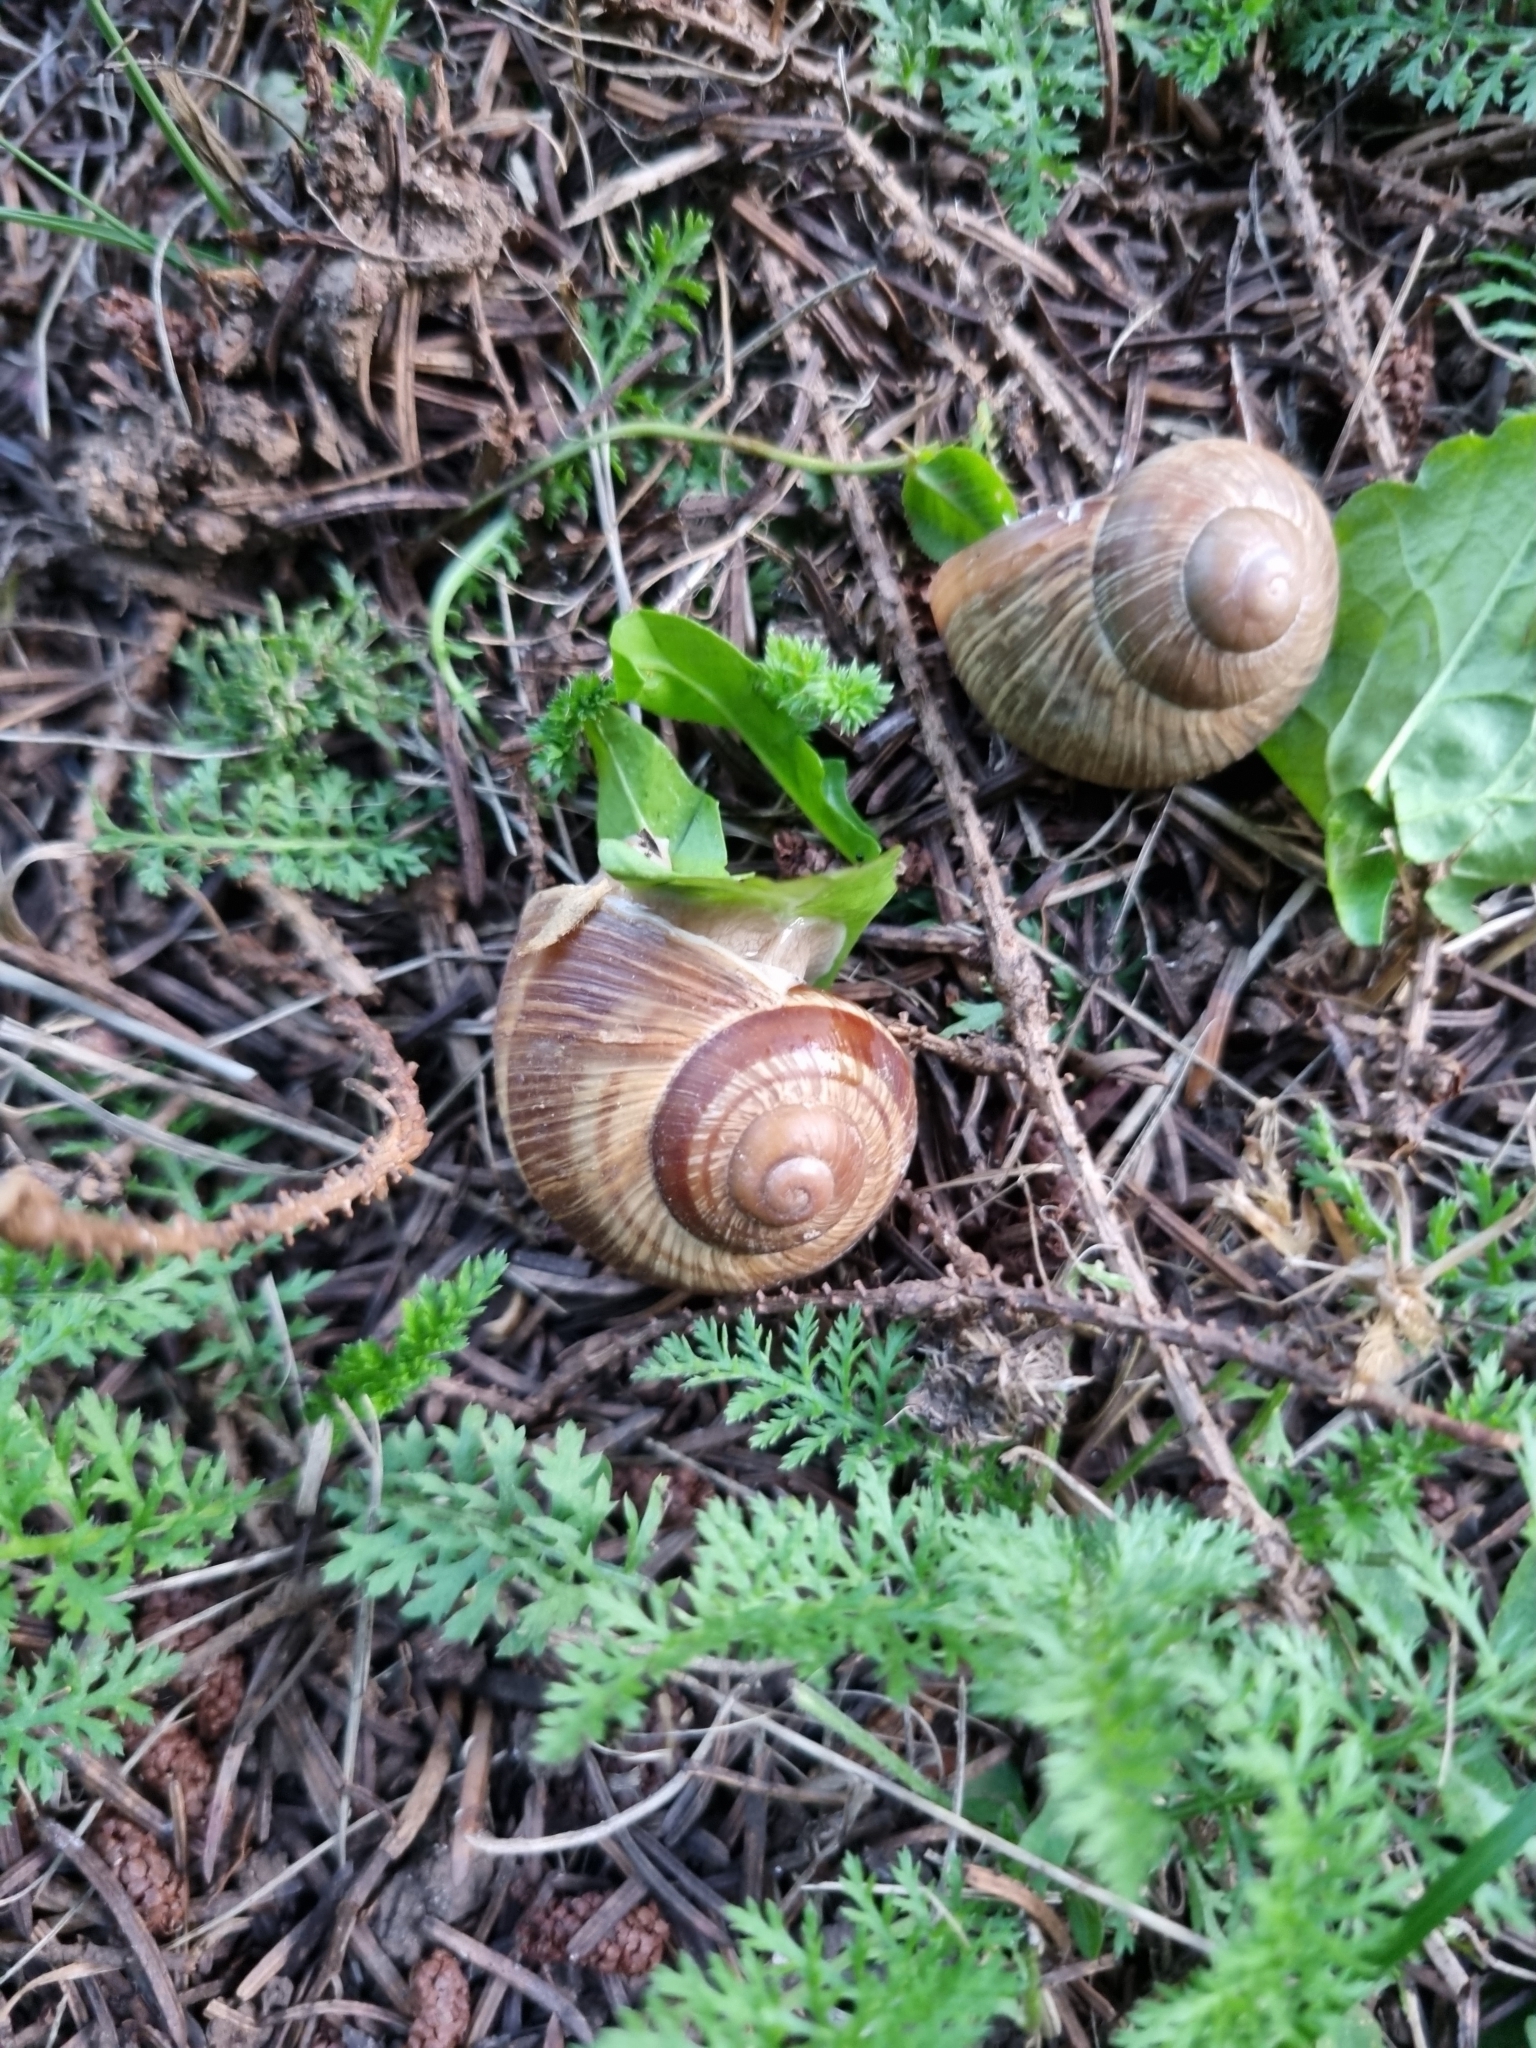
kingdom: Animalia
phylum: Mollusca
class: Gastropoda
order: Stylommatophora
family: Helicidae
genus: Helix
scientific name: Helix pomatia
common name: Roman snail
